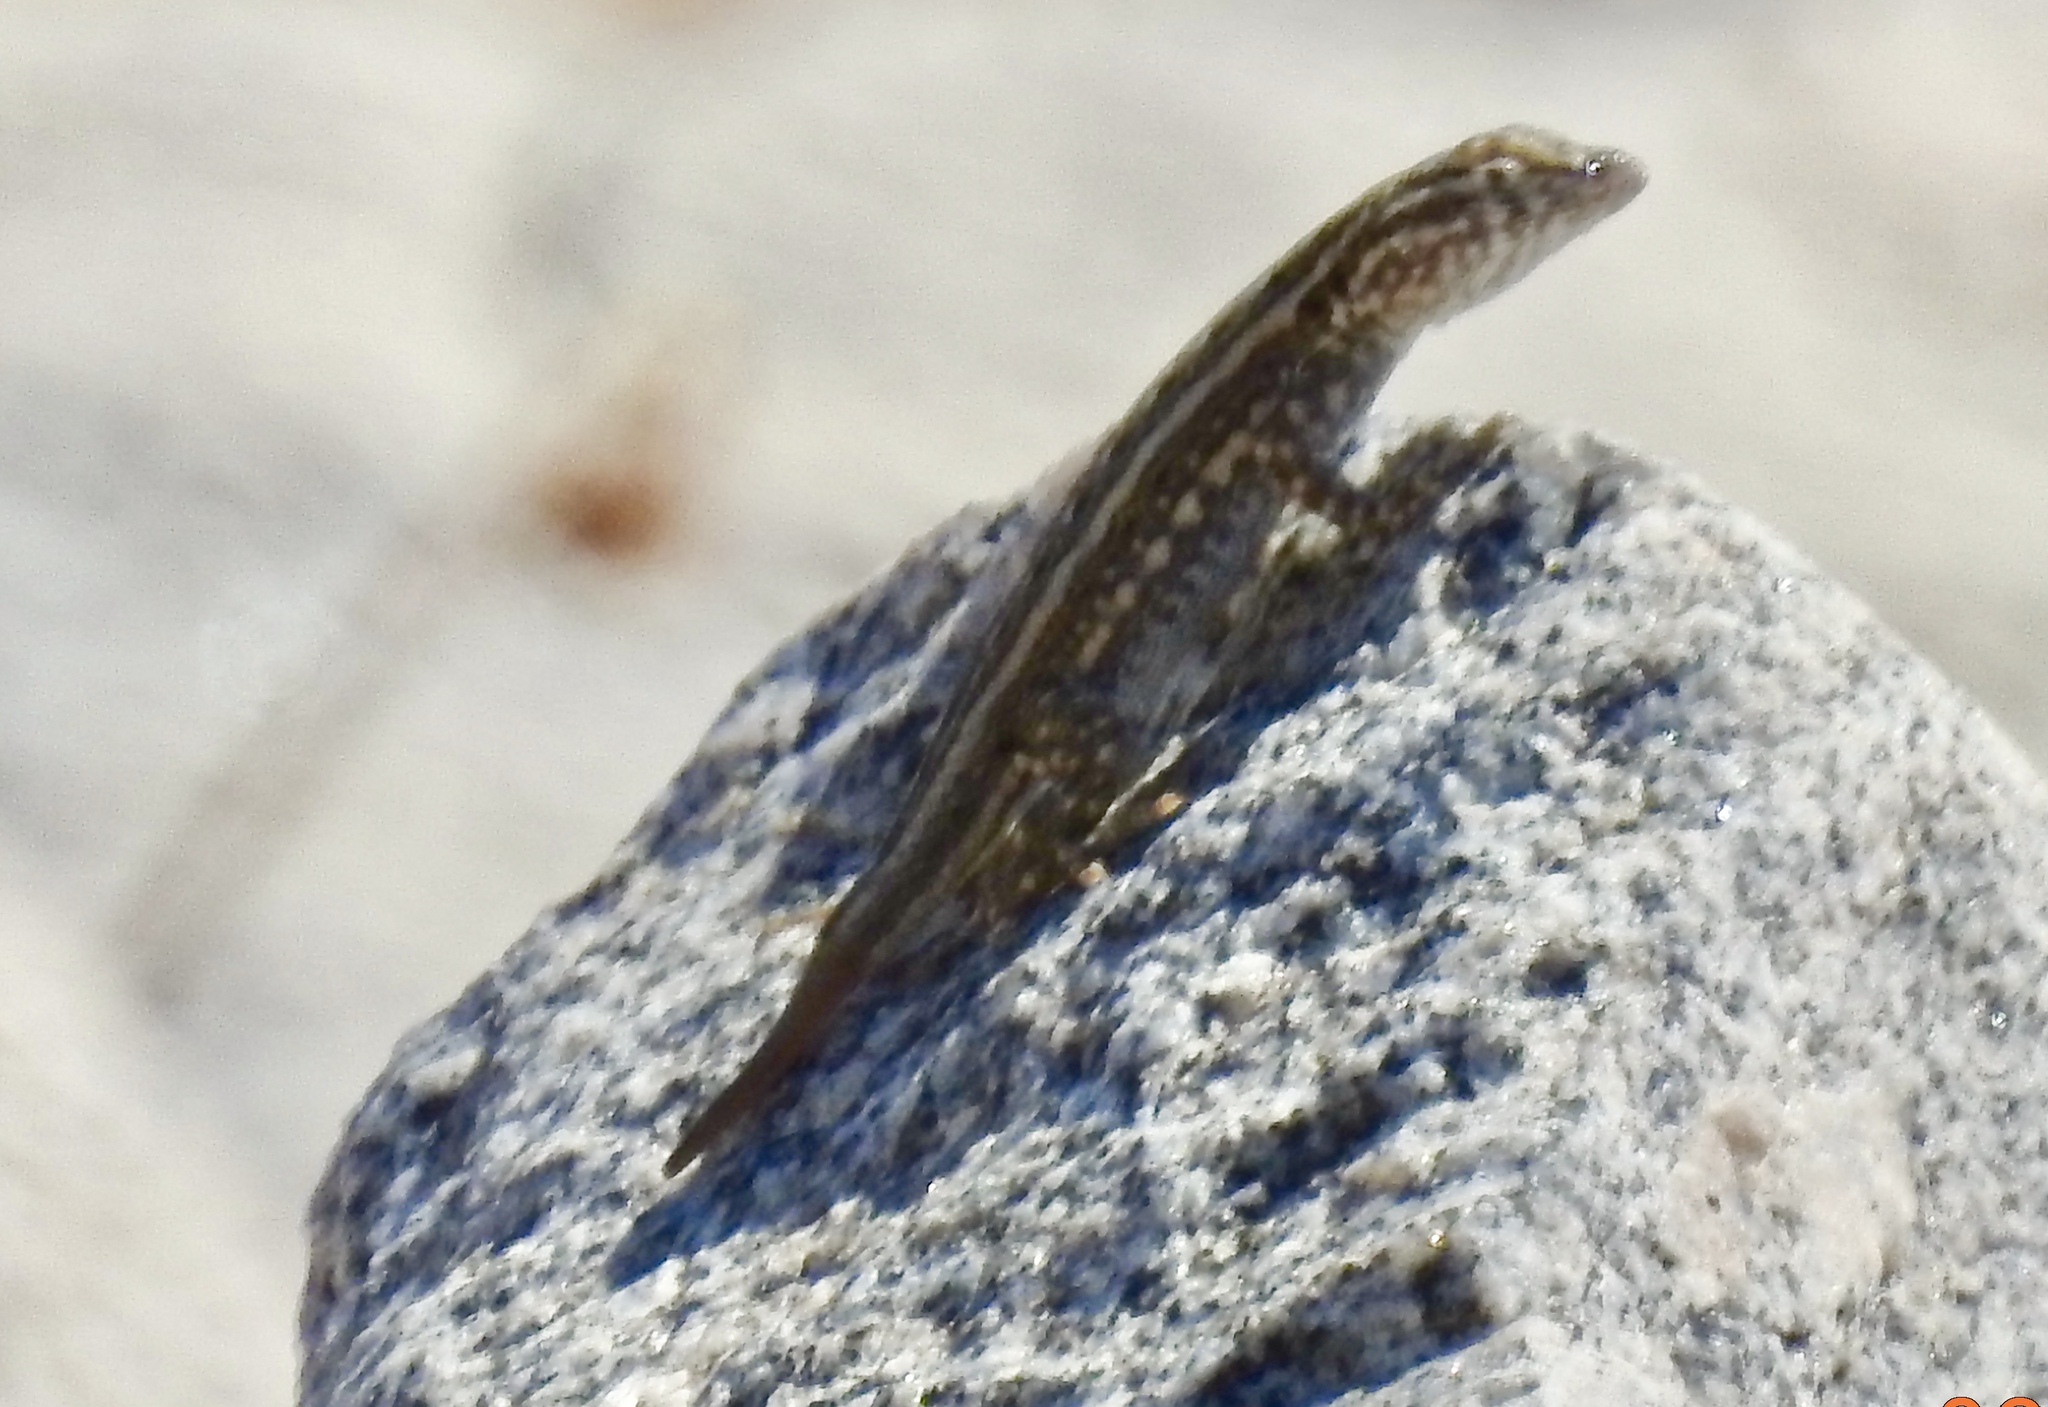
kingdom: Animalia
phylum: Chordata
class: Squamata
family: Phrynosomatidae
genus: Uta
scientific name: Uta stansburiana
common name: Side-blotched lizard
